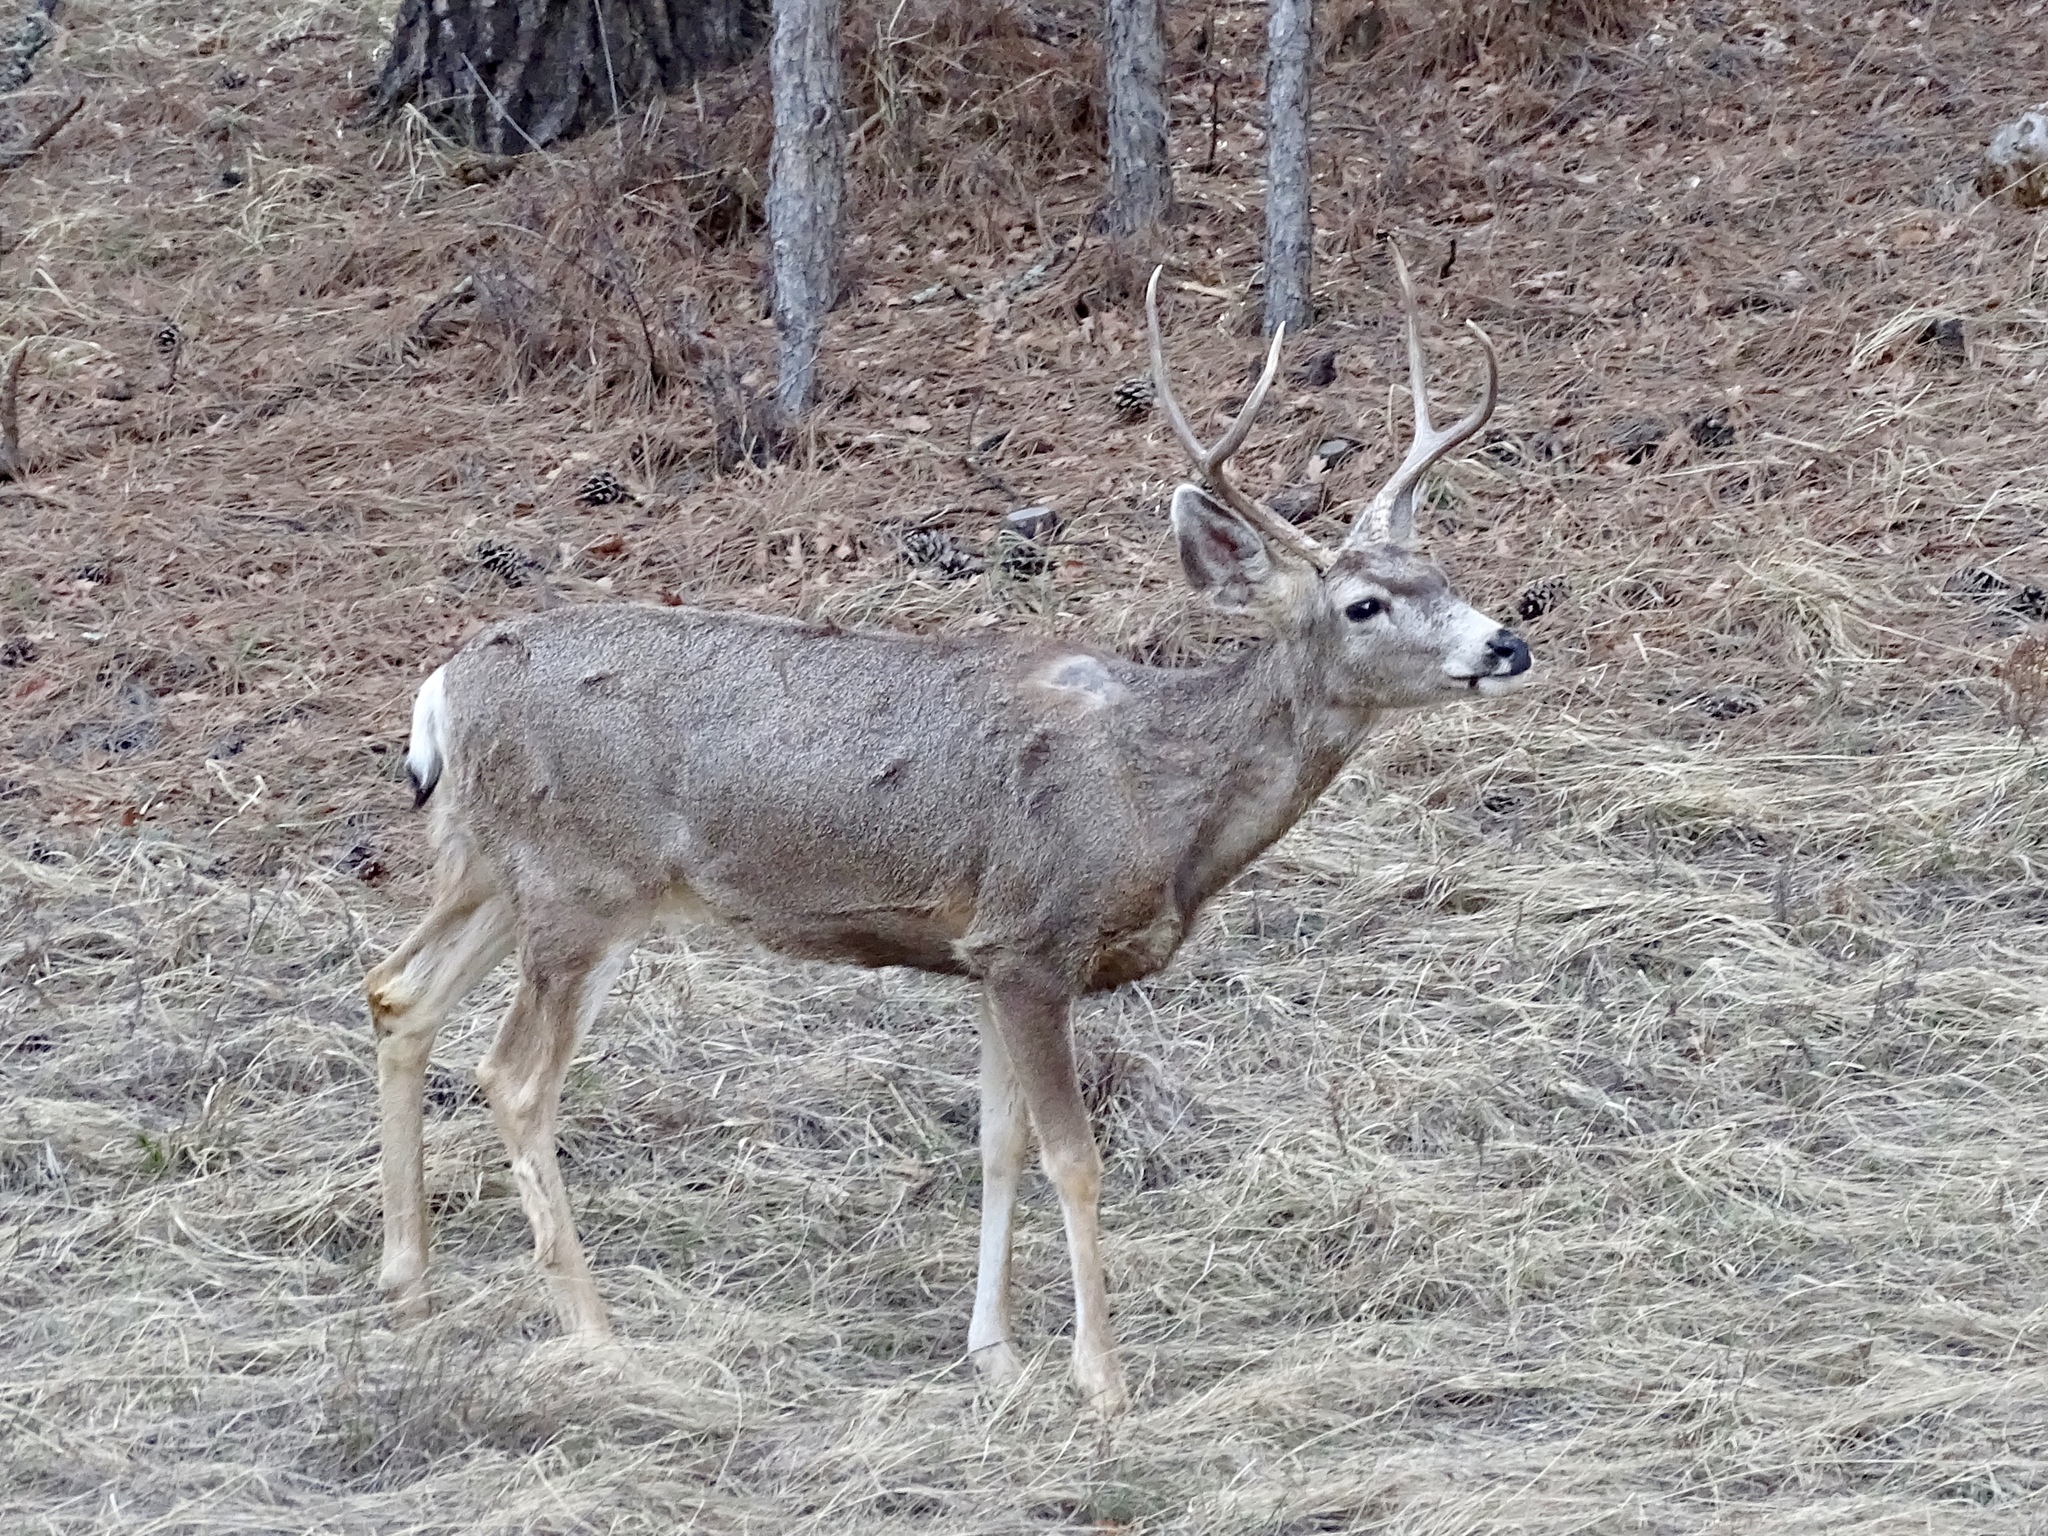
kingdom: Animalia
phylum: Chordata
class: Mammalia
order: Artiodactyla
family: Cervidae
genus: Odocoileus
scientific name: Odocoileus hemionus
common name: Mule deer
